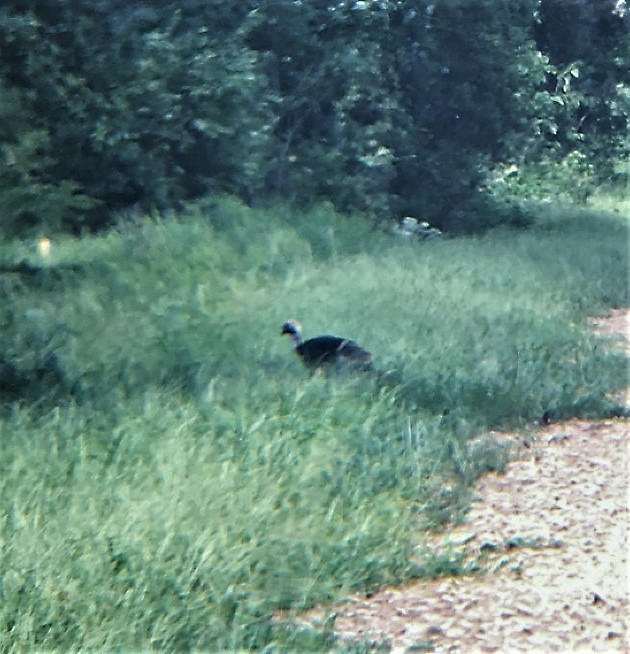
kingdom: Animalia
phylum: Chordata
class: Aves
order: Galliformes
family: Phasianidae
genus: Meleagris
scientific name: Meleagris gallopavo
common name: Wild turkey
